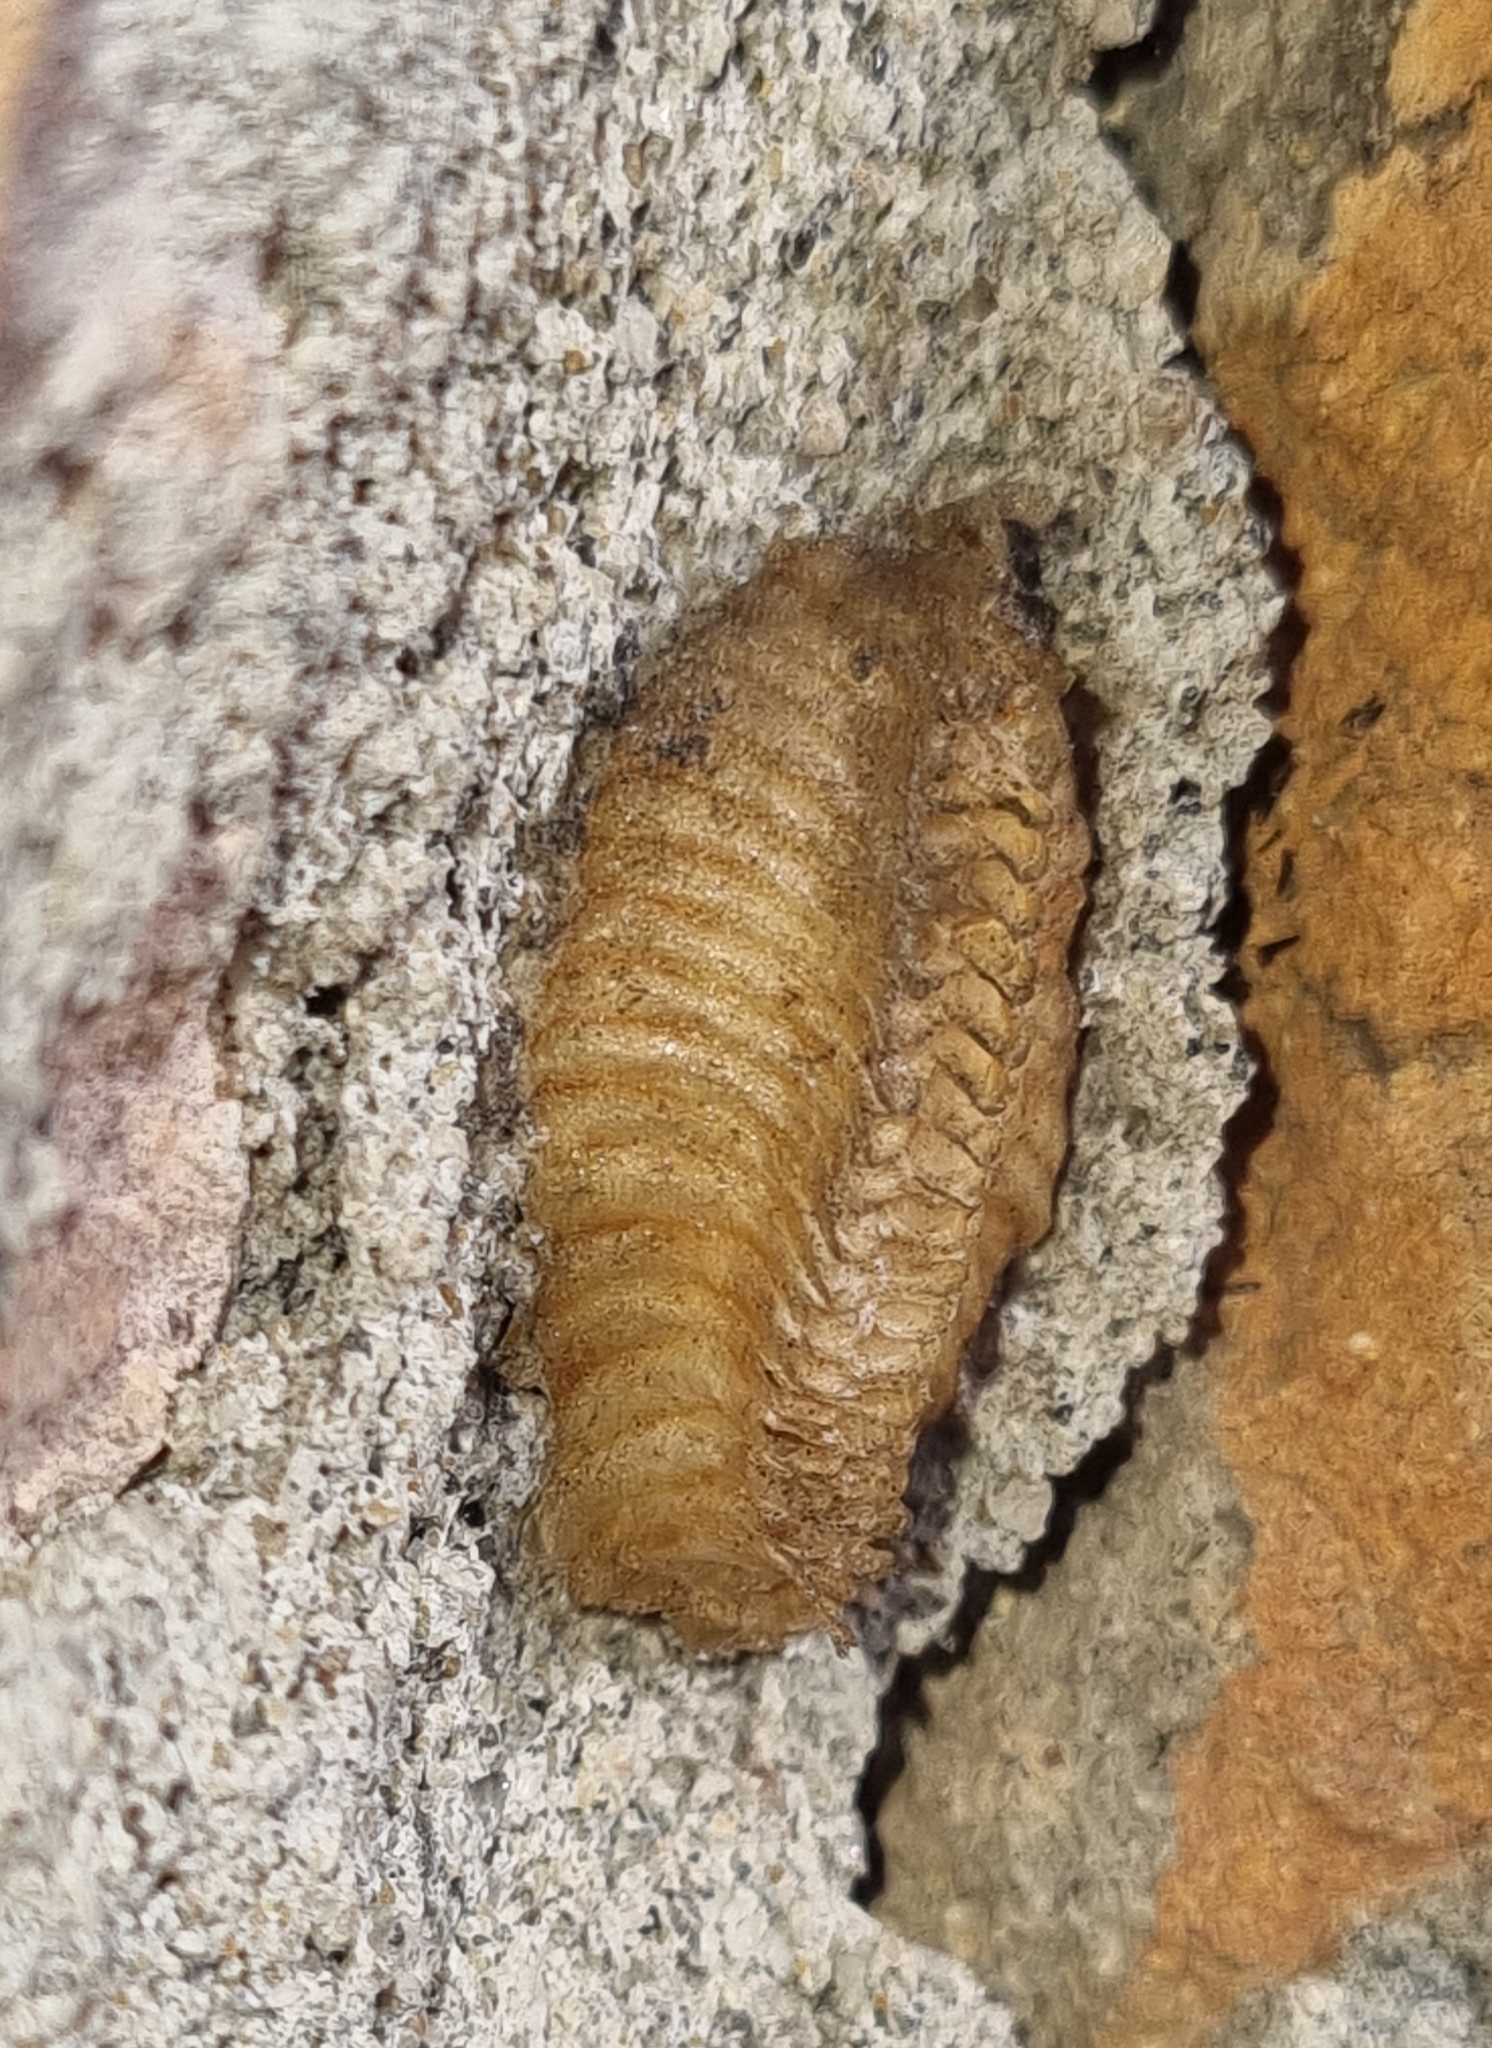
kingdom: Animalia
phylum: Arthropoda
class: Insecta
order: Mantodea
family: Miomantidae
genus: Miomantis
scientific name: Miomantis caffra
